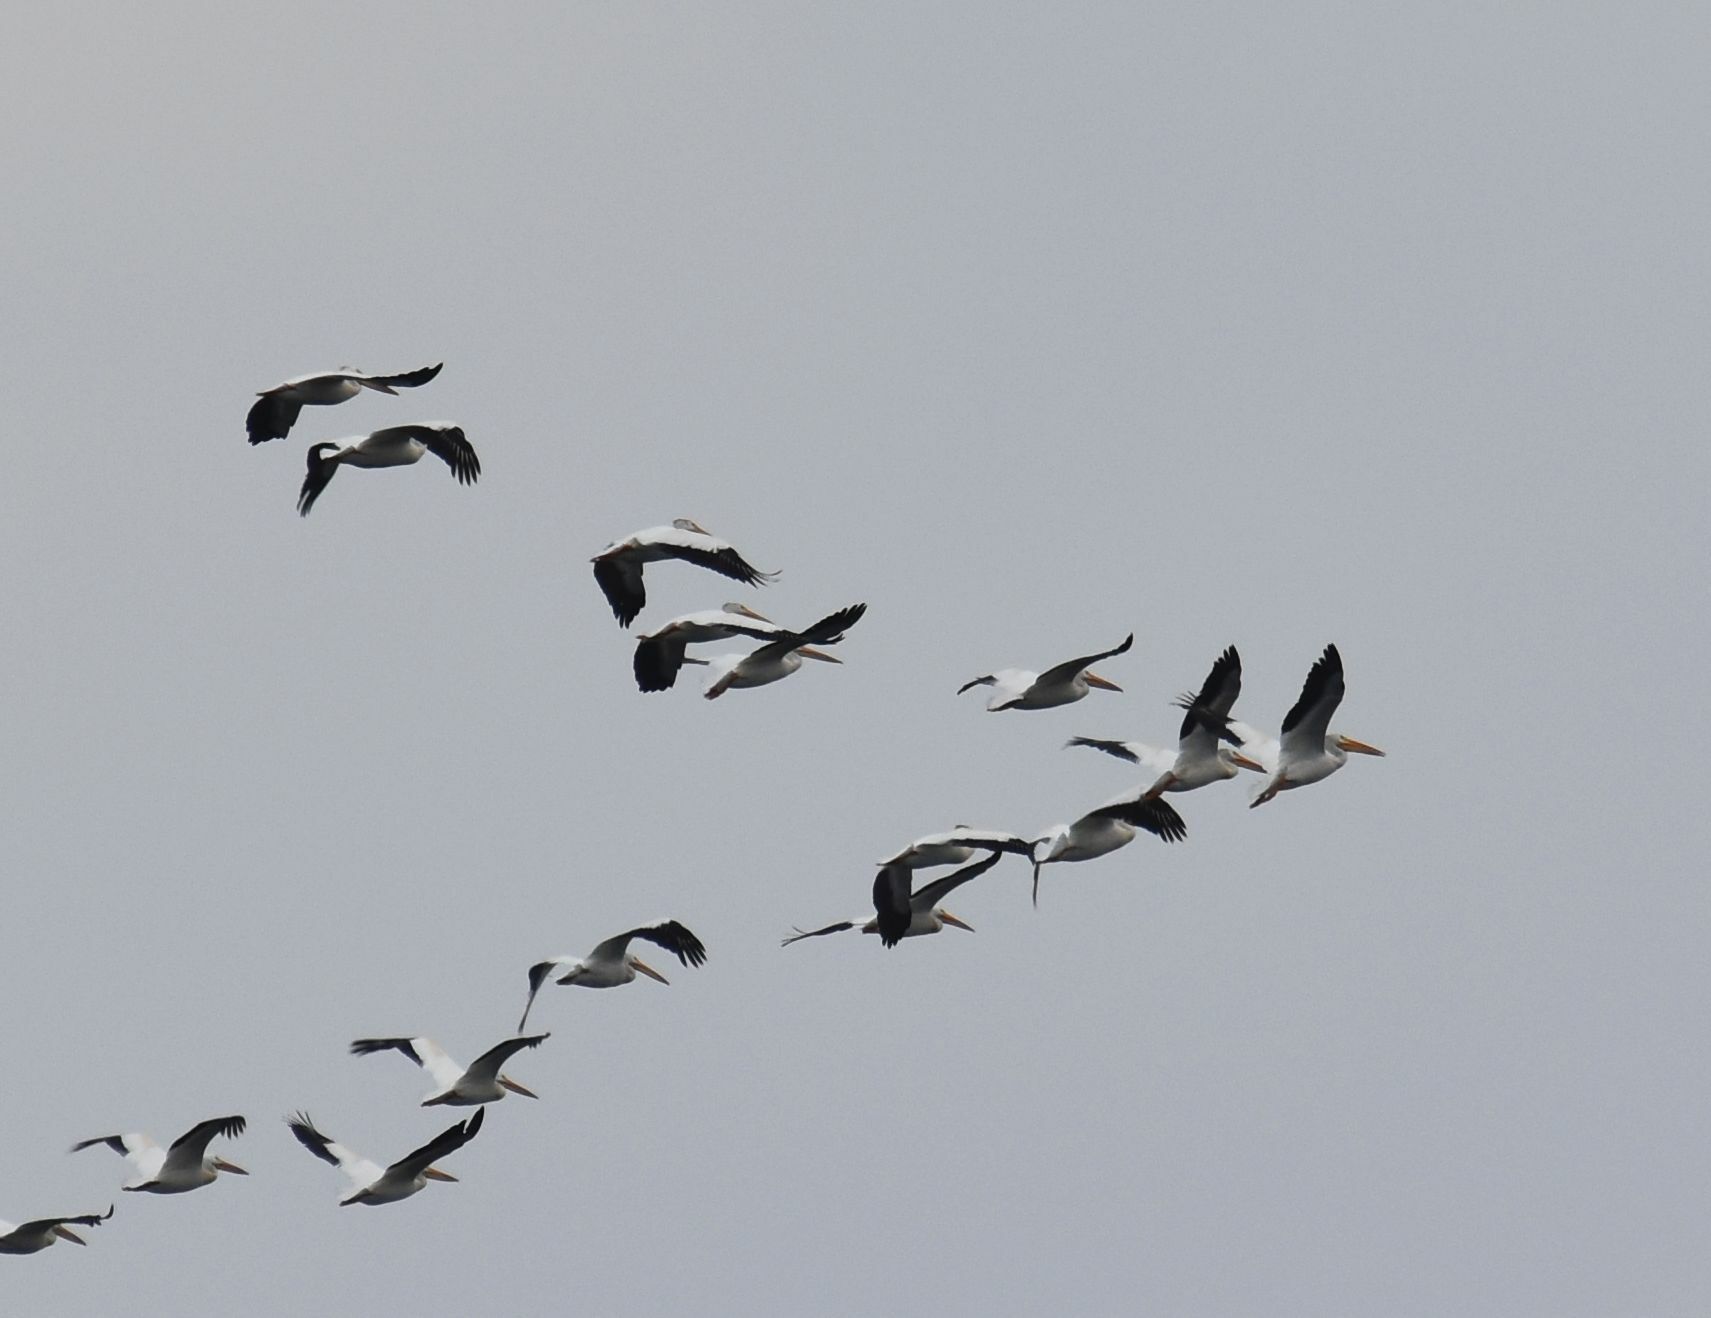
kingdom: Animalia
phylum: Chordata
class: Aves
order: Pelecaniformes
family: Pelecanidae
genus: Pelecanus
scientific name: Pelecanus erythrorhynchos
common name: American white pelican
